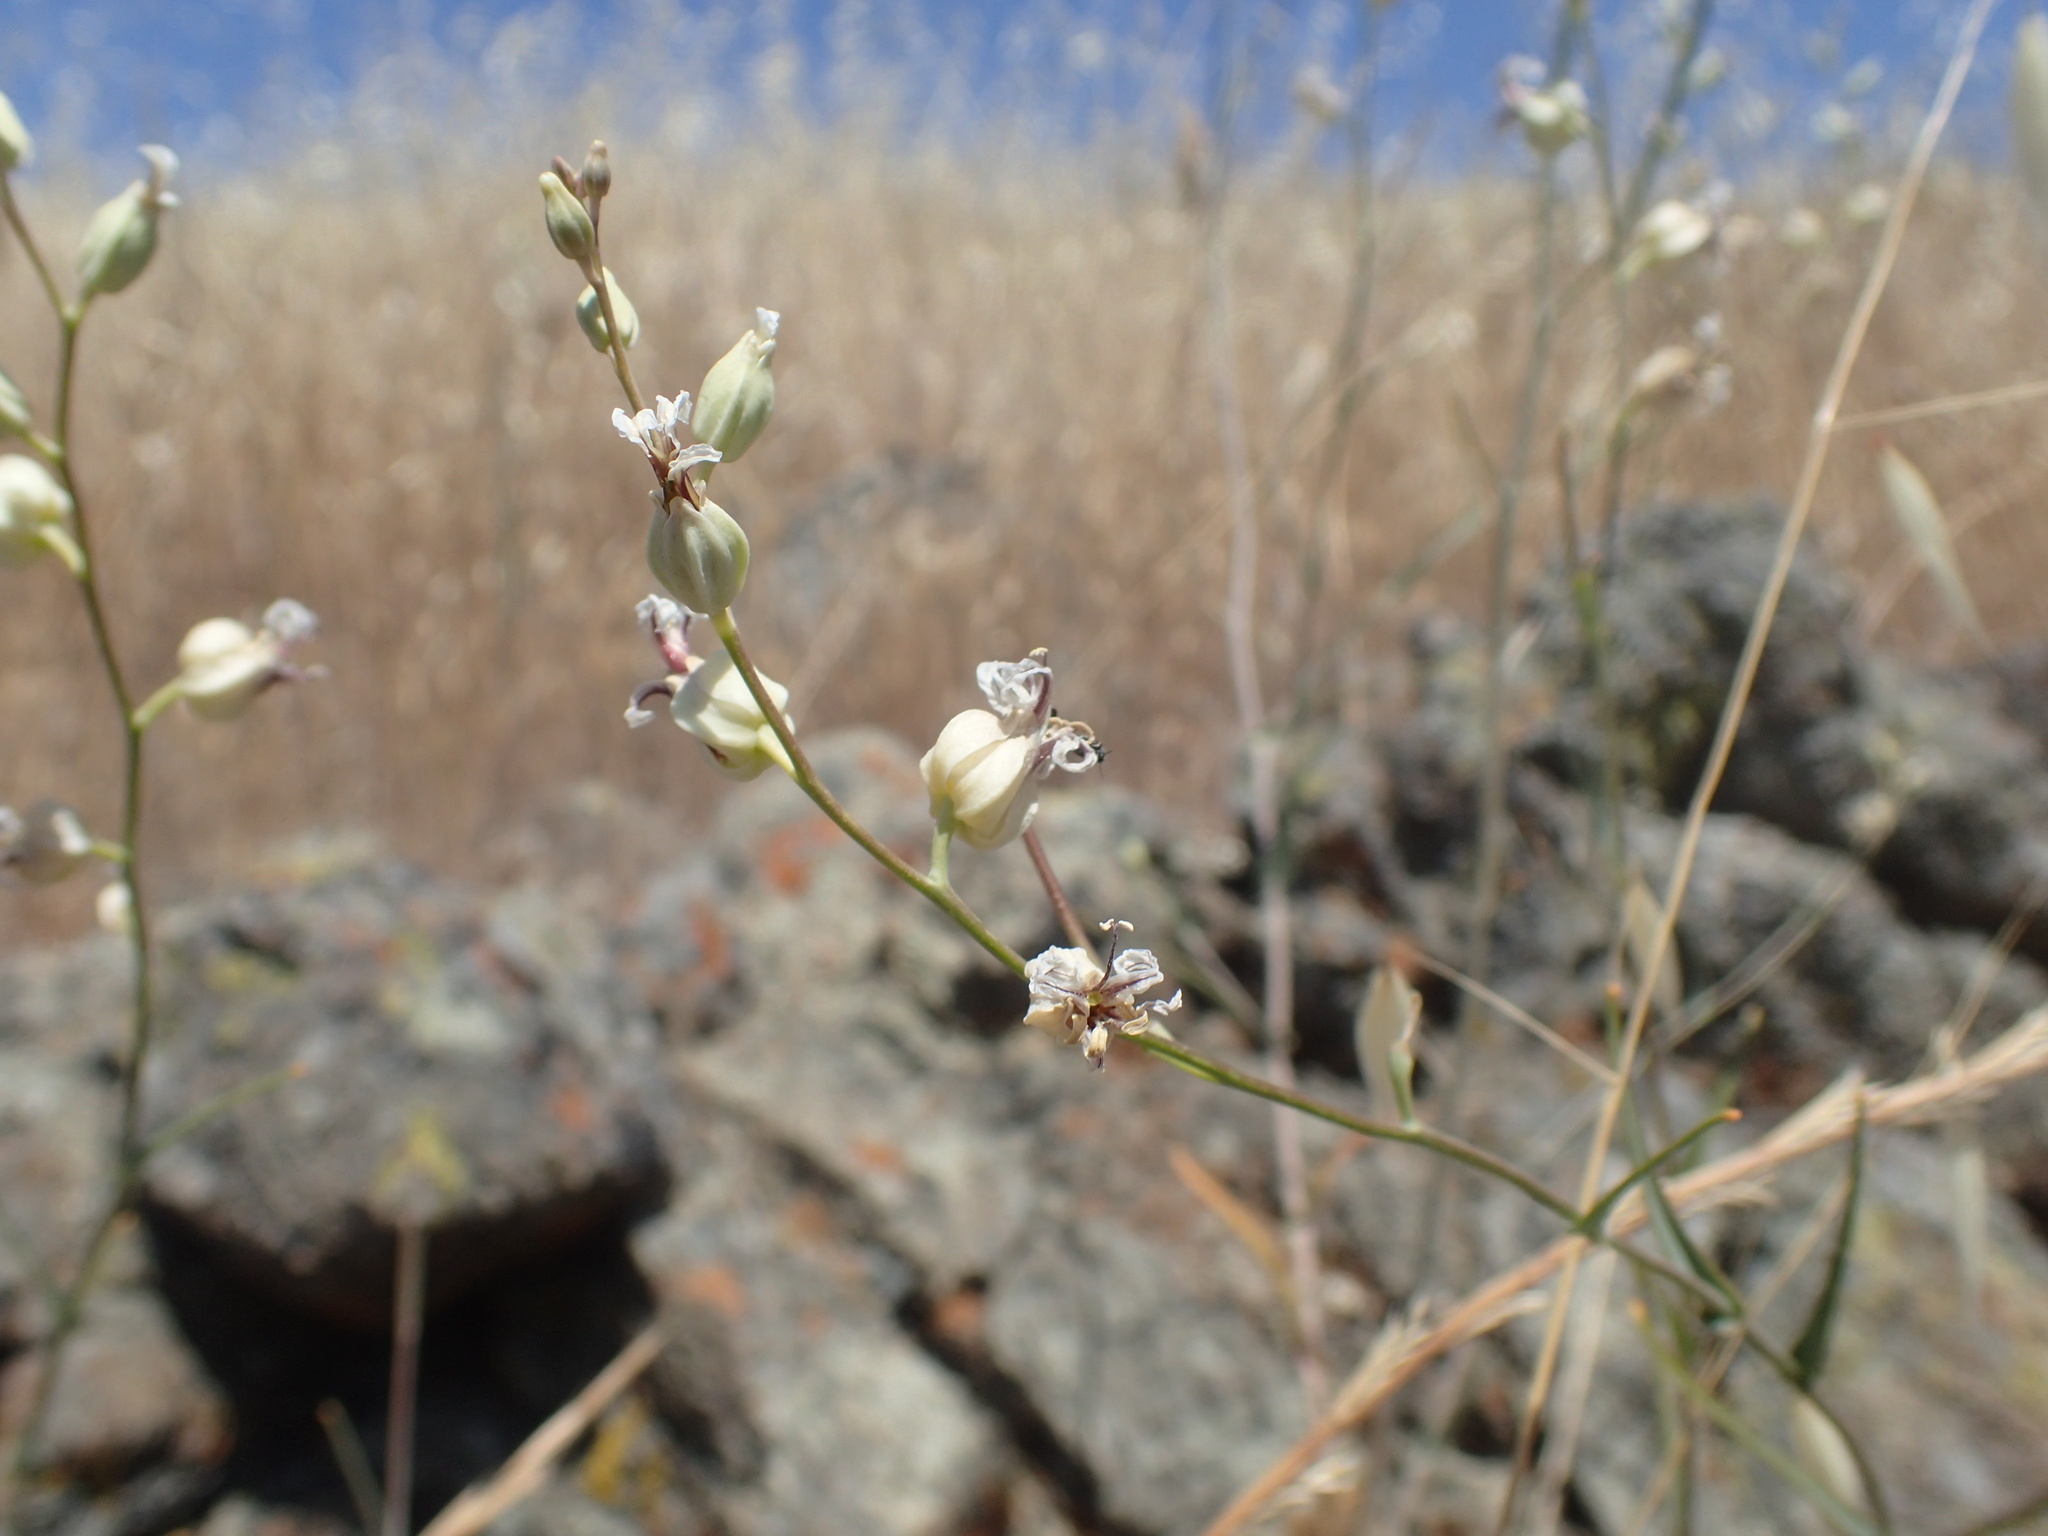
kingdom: Plantae
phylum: Tracheophyta
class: Magnoliopsida
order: Brassicales
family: Brassicaceae
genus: Streptanthus
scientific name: Streptanthus glandulosus
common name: Jewel-flower
